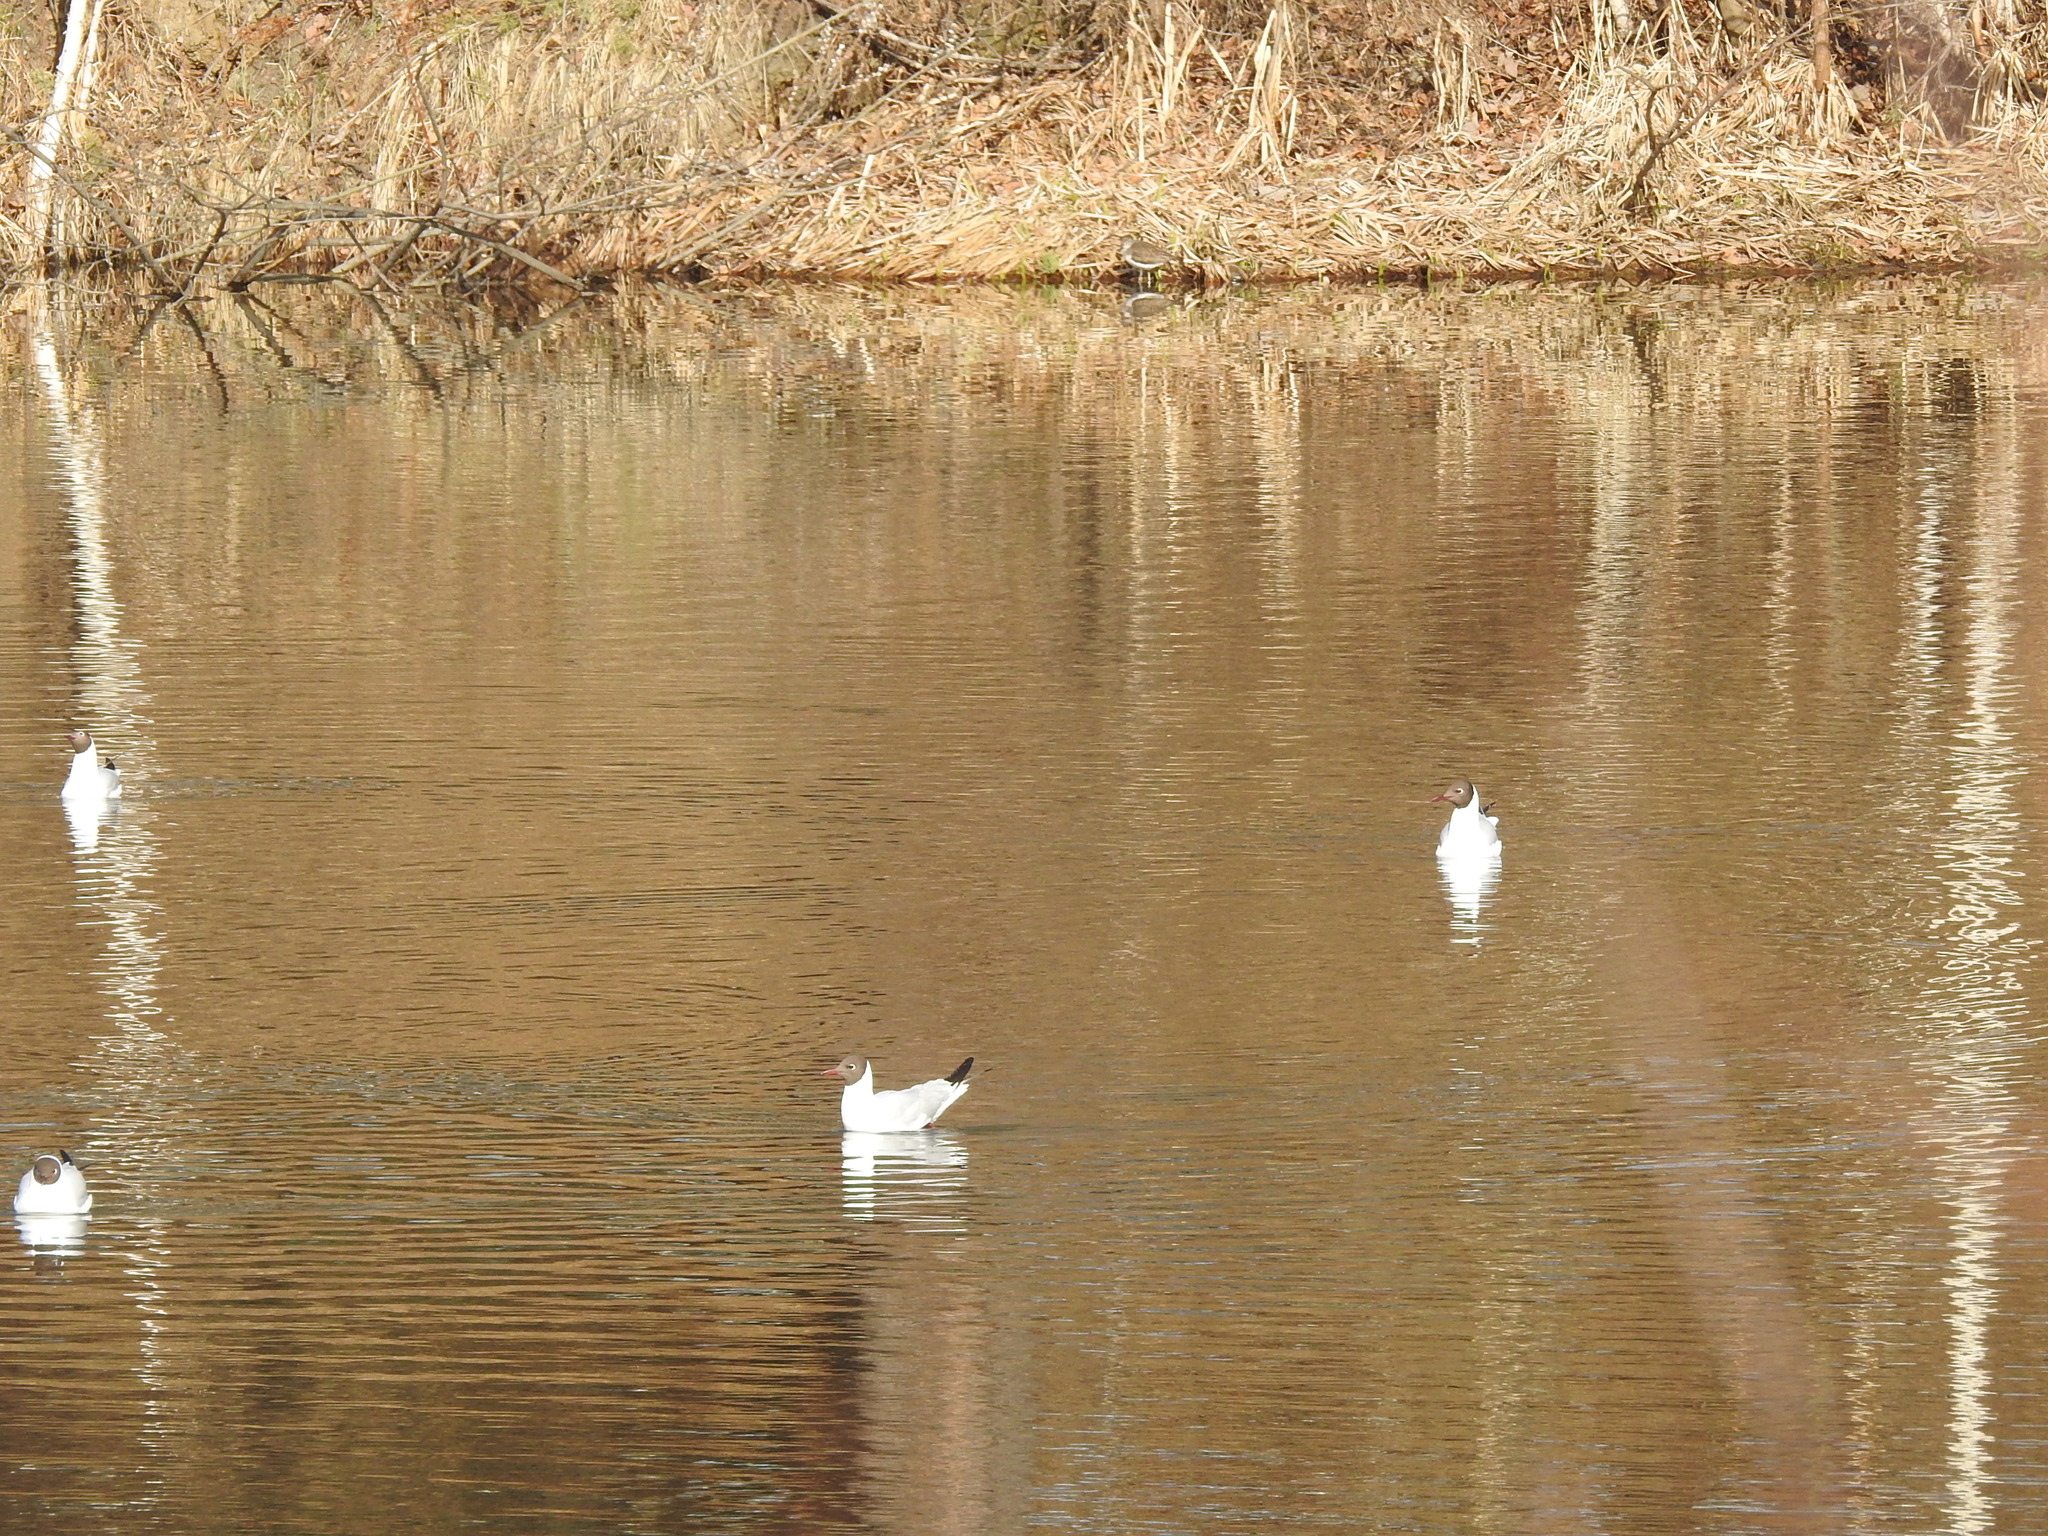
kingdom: Animalia
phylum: Chordata
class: Aves
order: Charadriiformes
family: Laridae
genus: Chroicocephalus
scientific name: Chroicocephalus ridibundus
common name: Black-headed gull
